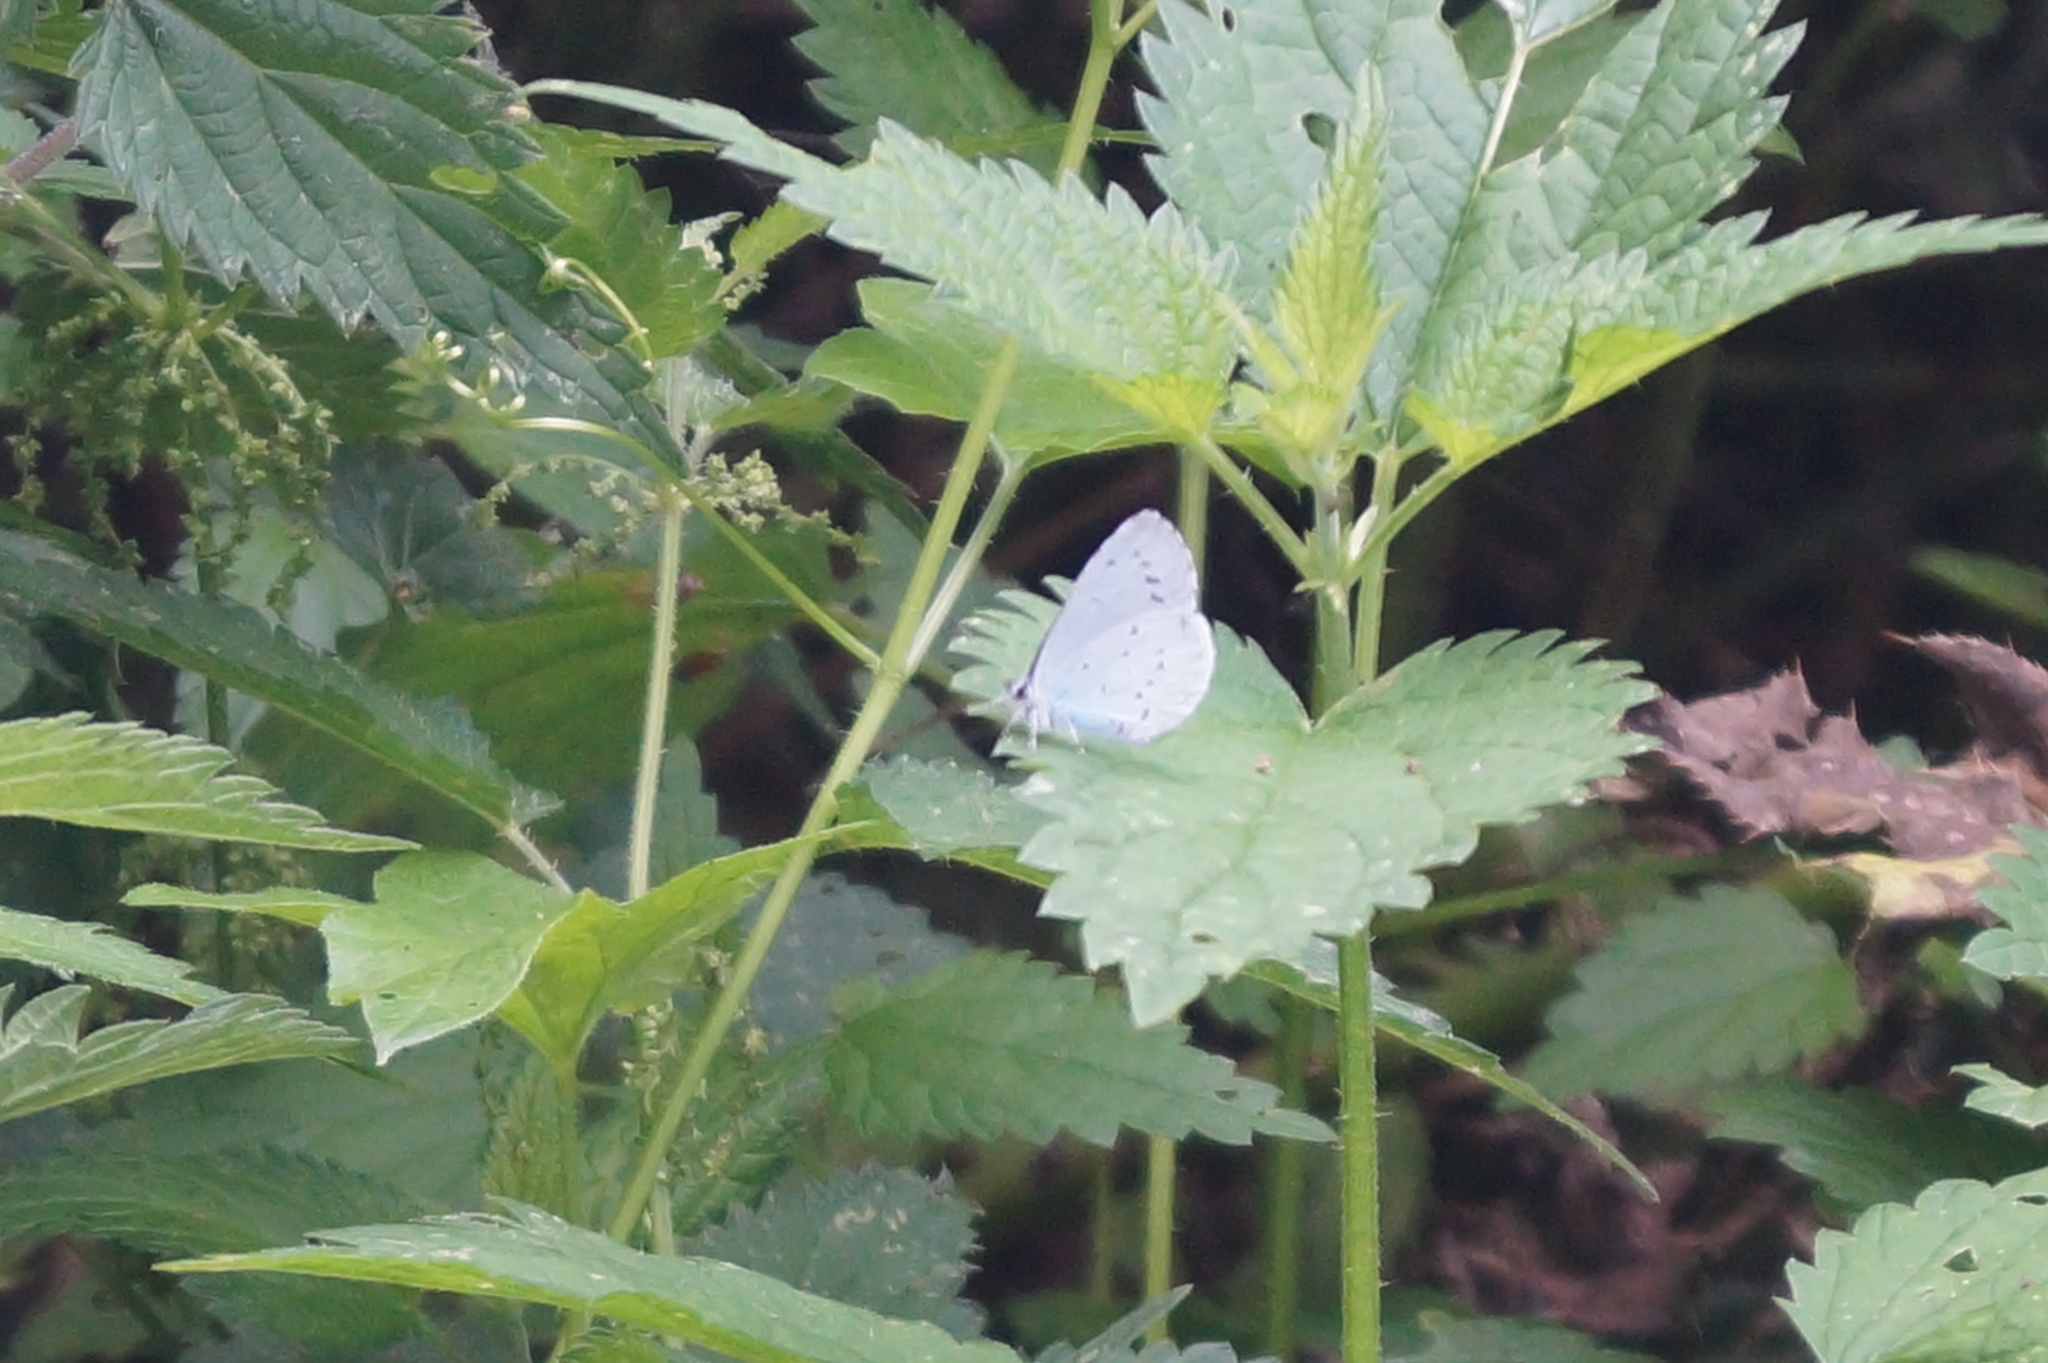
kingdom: Animalia
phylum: Arthropoda
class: Insecta
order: Lepidoptera
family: Lycaenidae
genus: Celastrina
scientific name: Celastrina argiolus
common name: Holly blue
